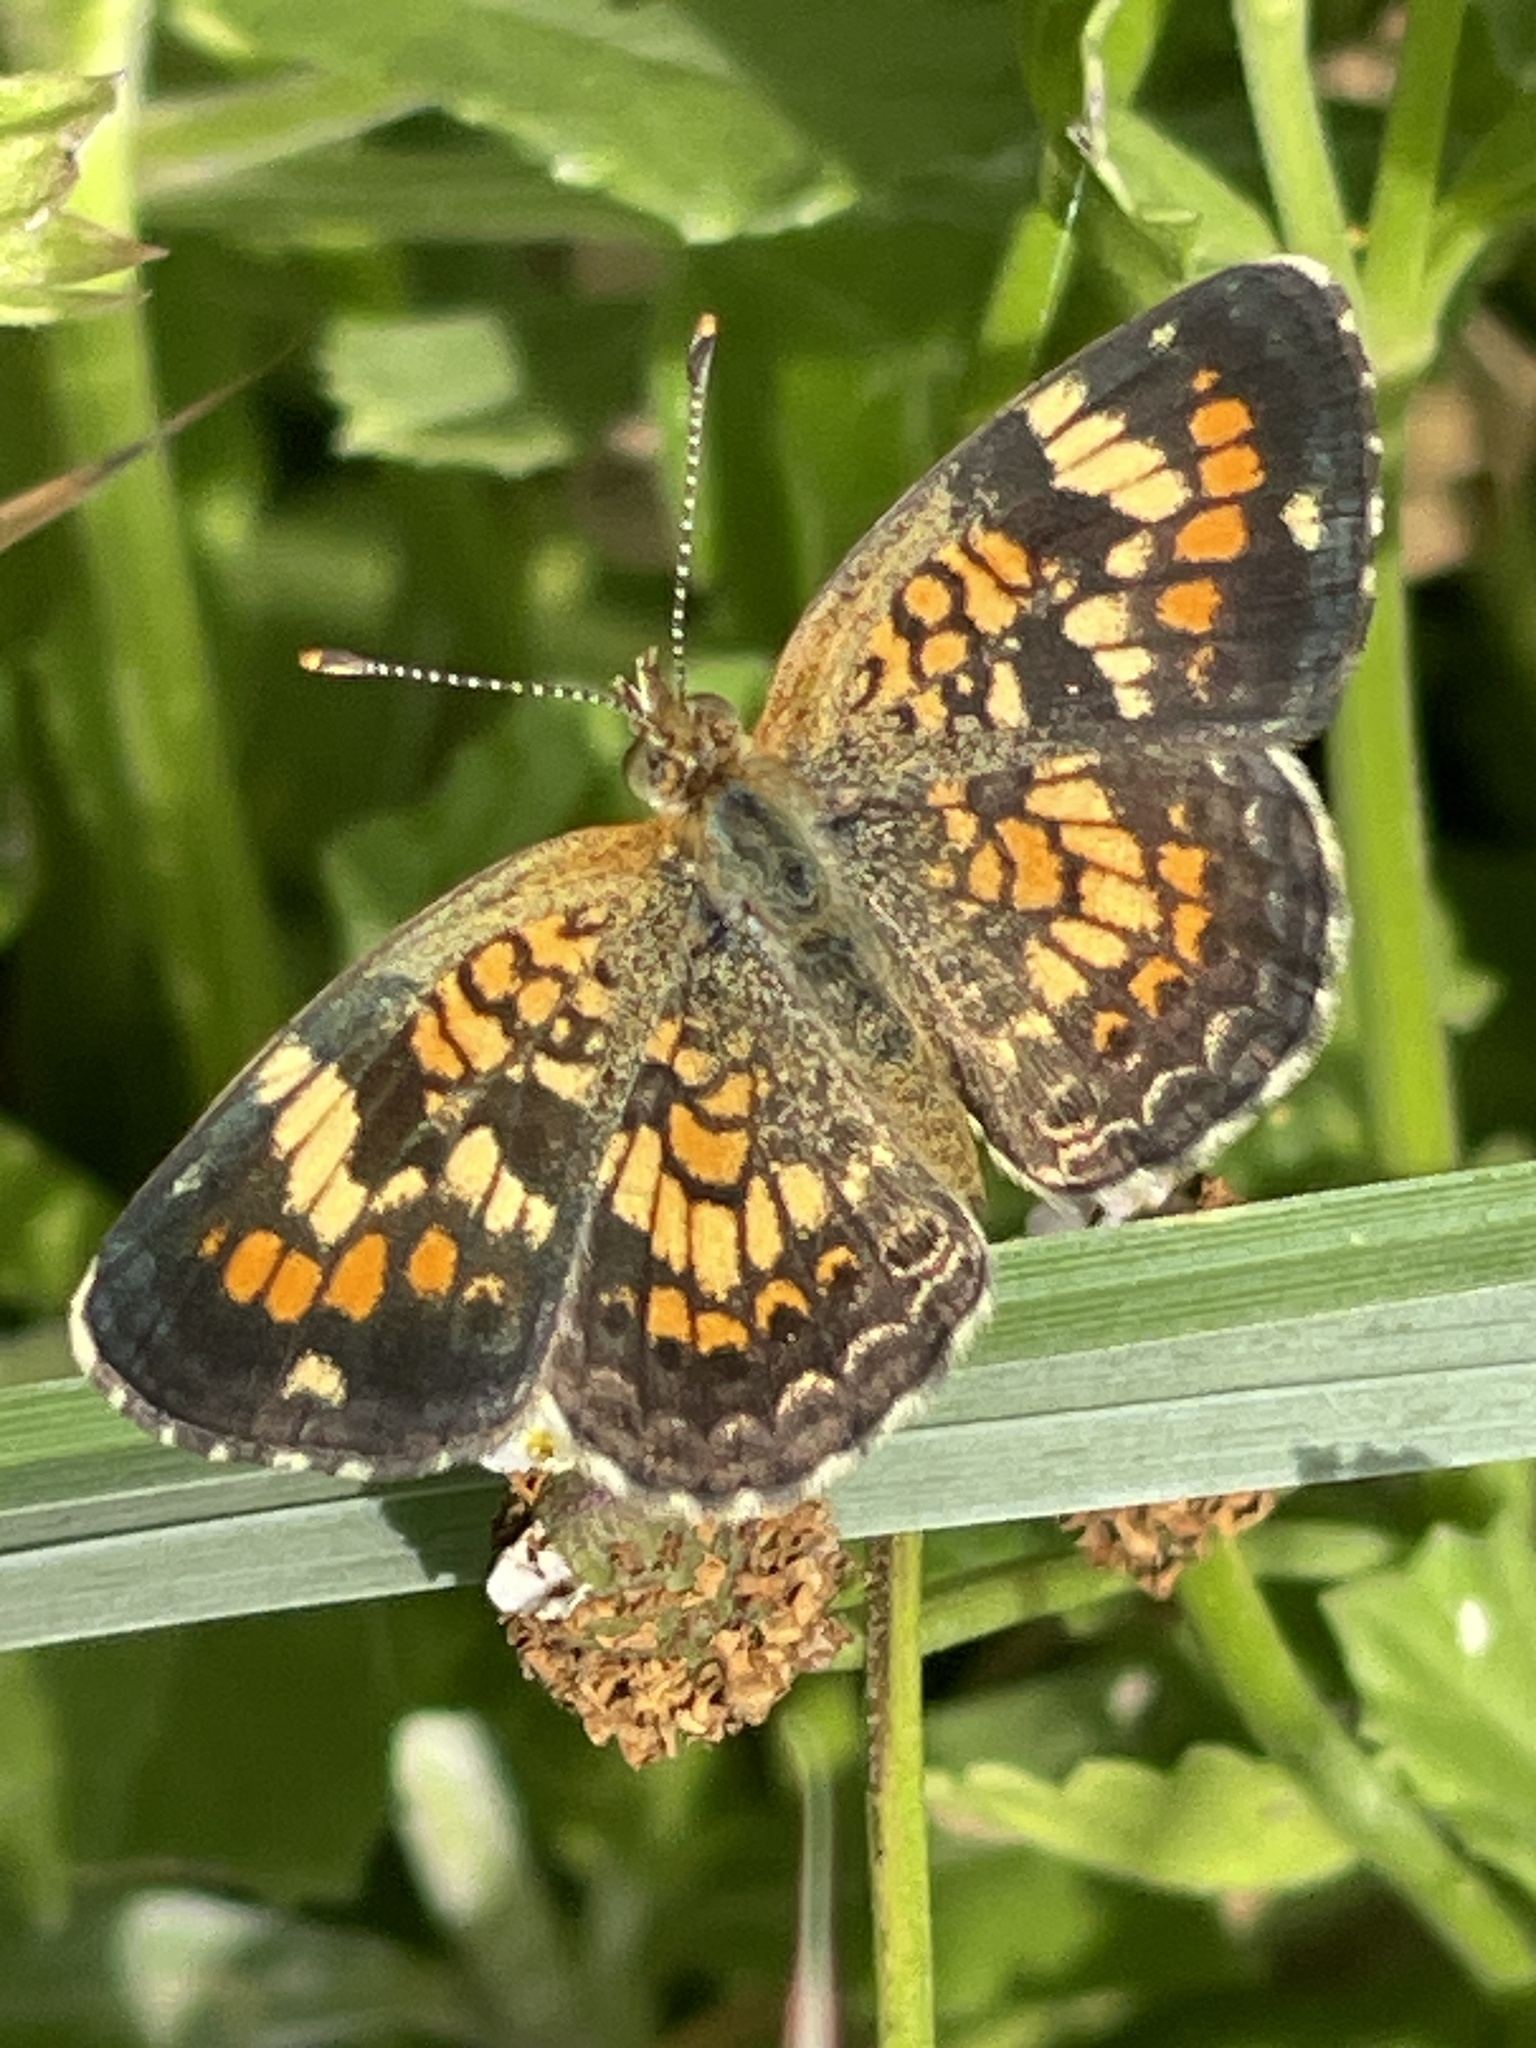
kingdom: Animalia
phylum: Arthropoda
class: Insecta
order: Lepidoptera
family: Nymphalidae
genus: Phyciodes
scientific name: Phyciodes phaon
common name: Phaon crescent
